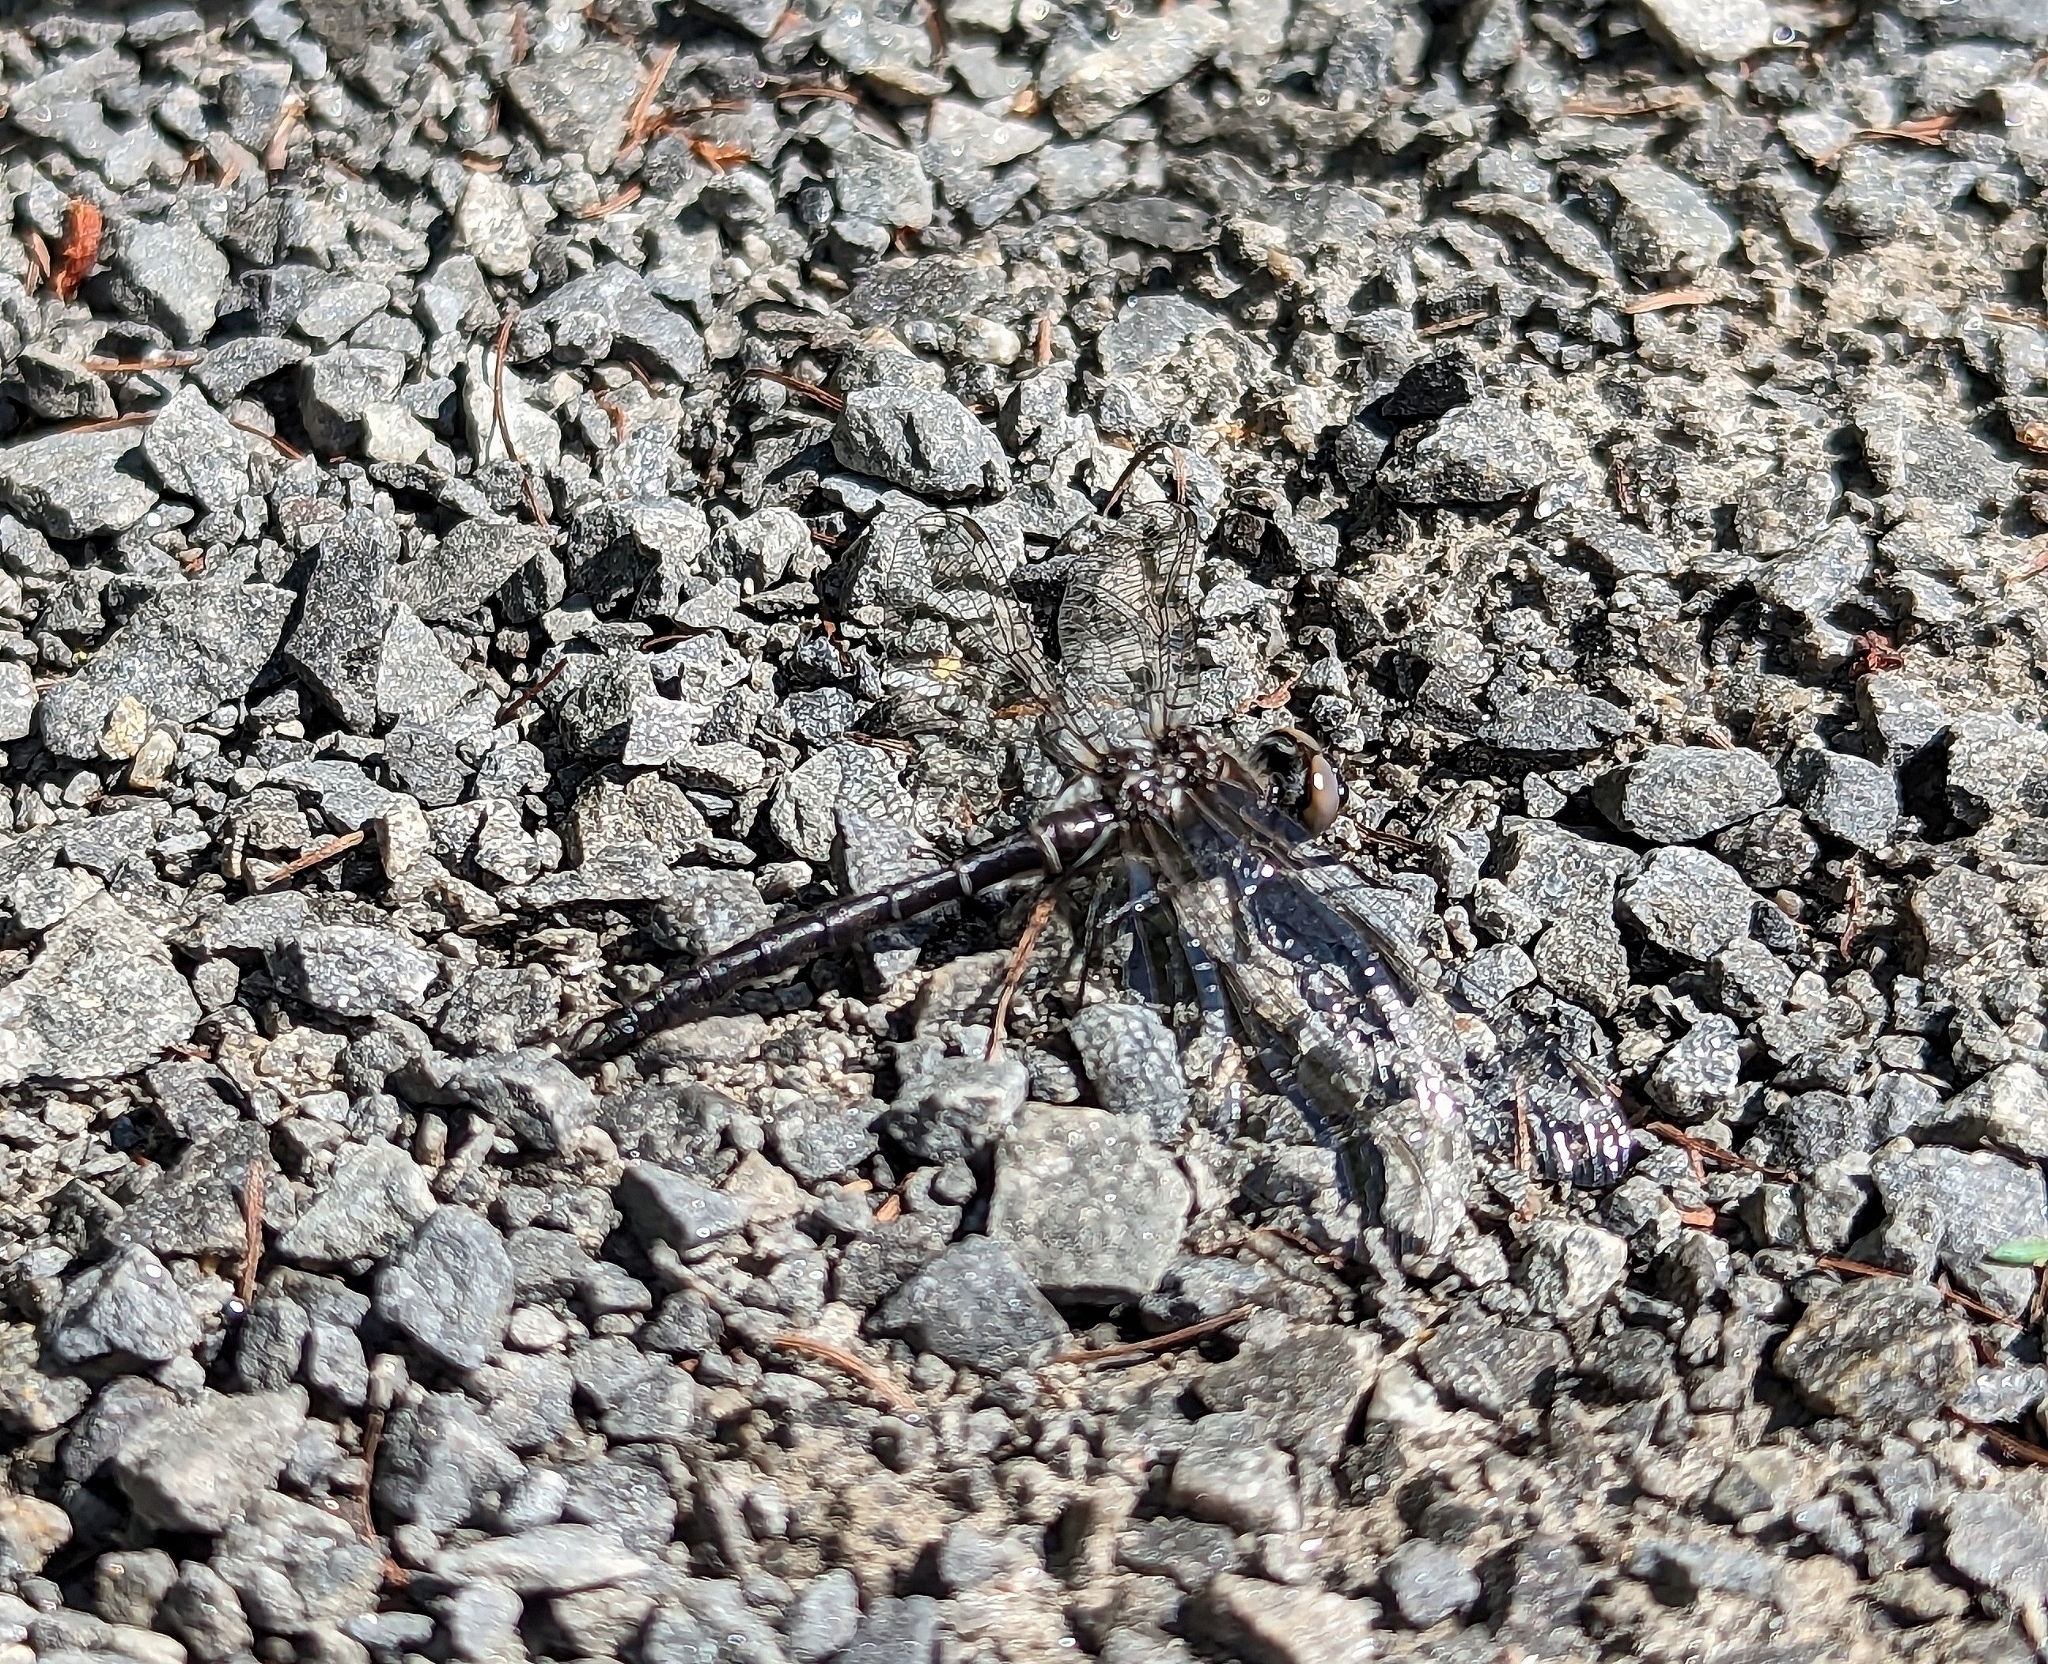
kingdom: Animalia
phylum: Arthropoda
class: Insecta
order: Odonata
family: Corduliidae
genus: Williamsonia
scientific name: Williamsonia fletcheri
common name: Ebony boghaunter
